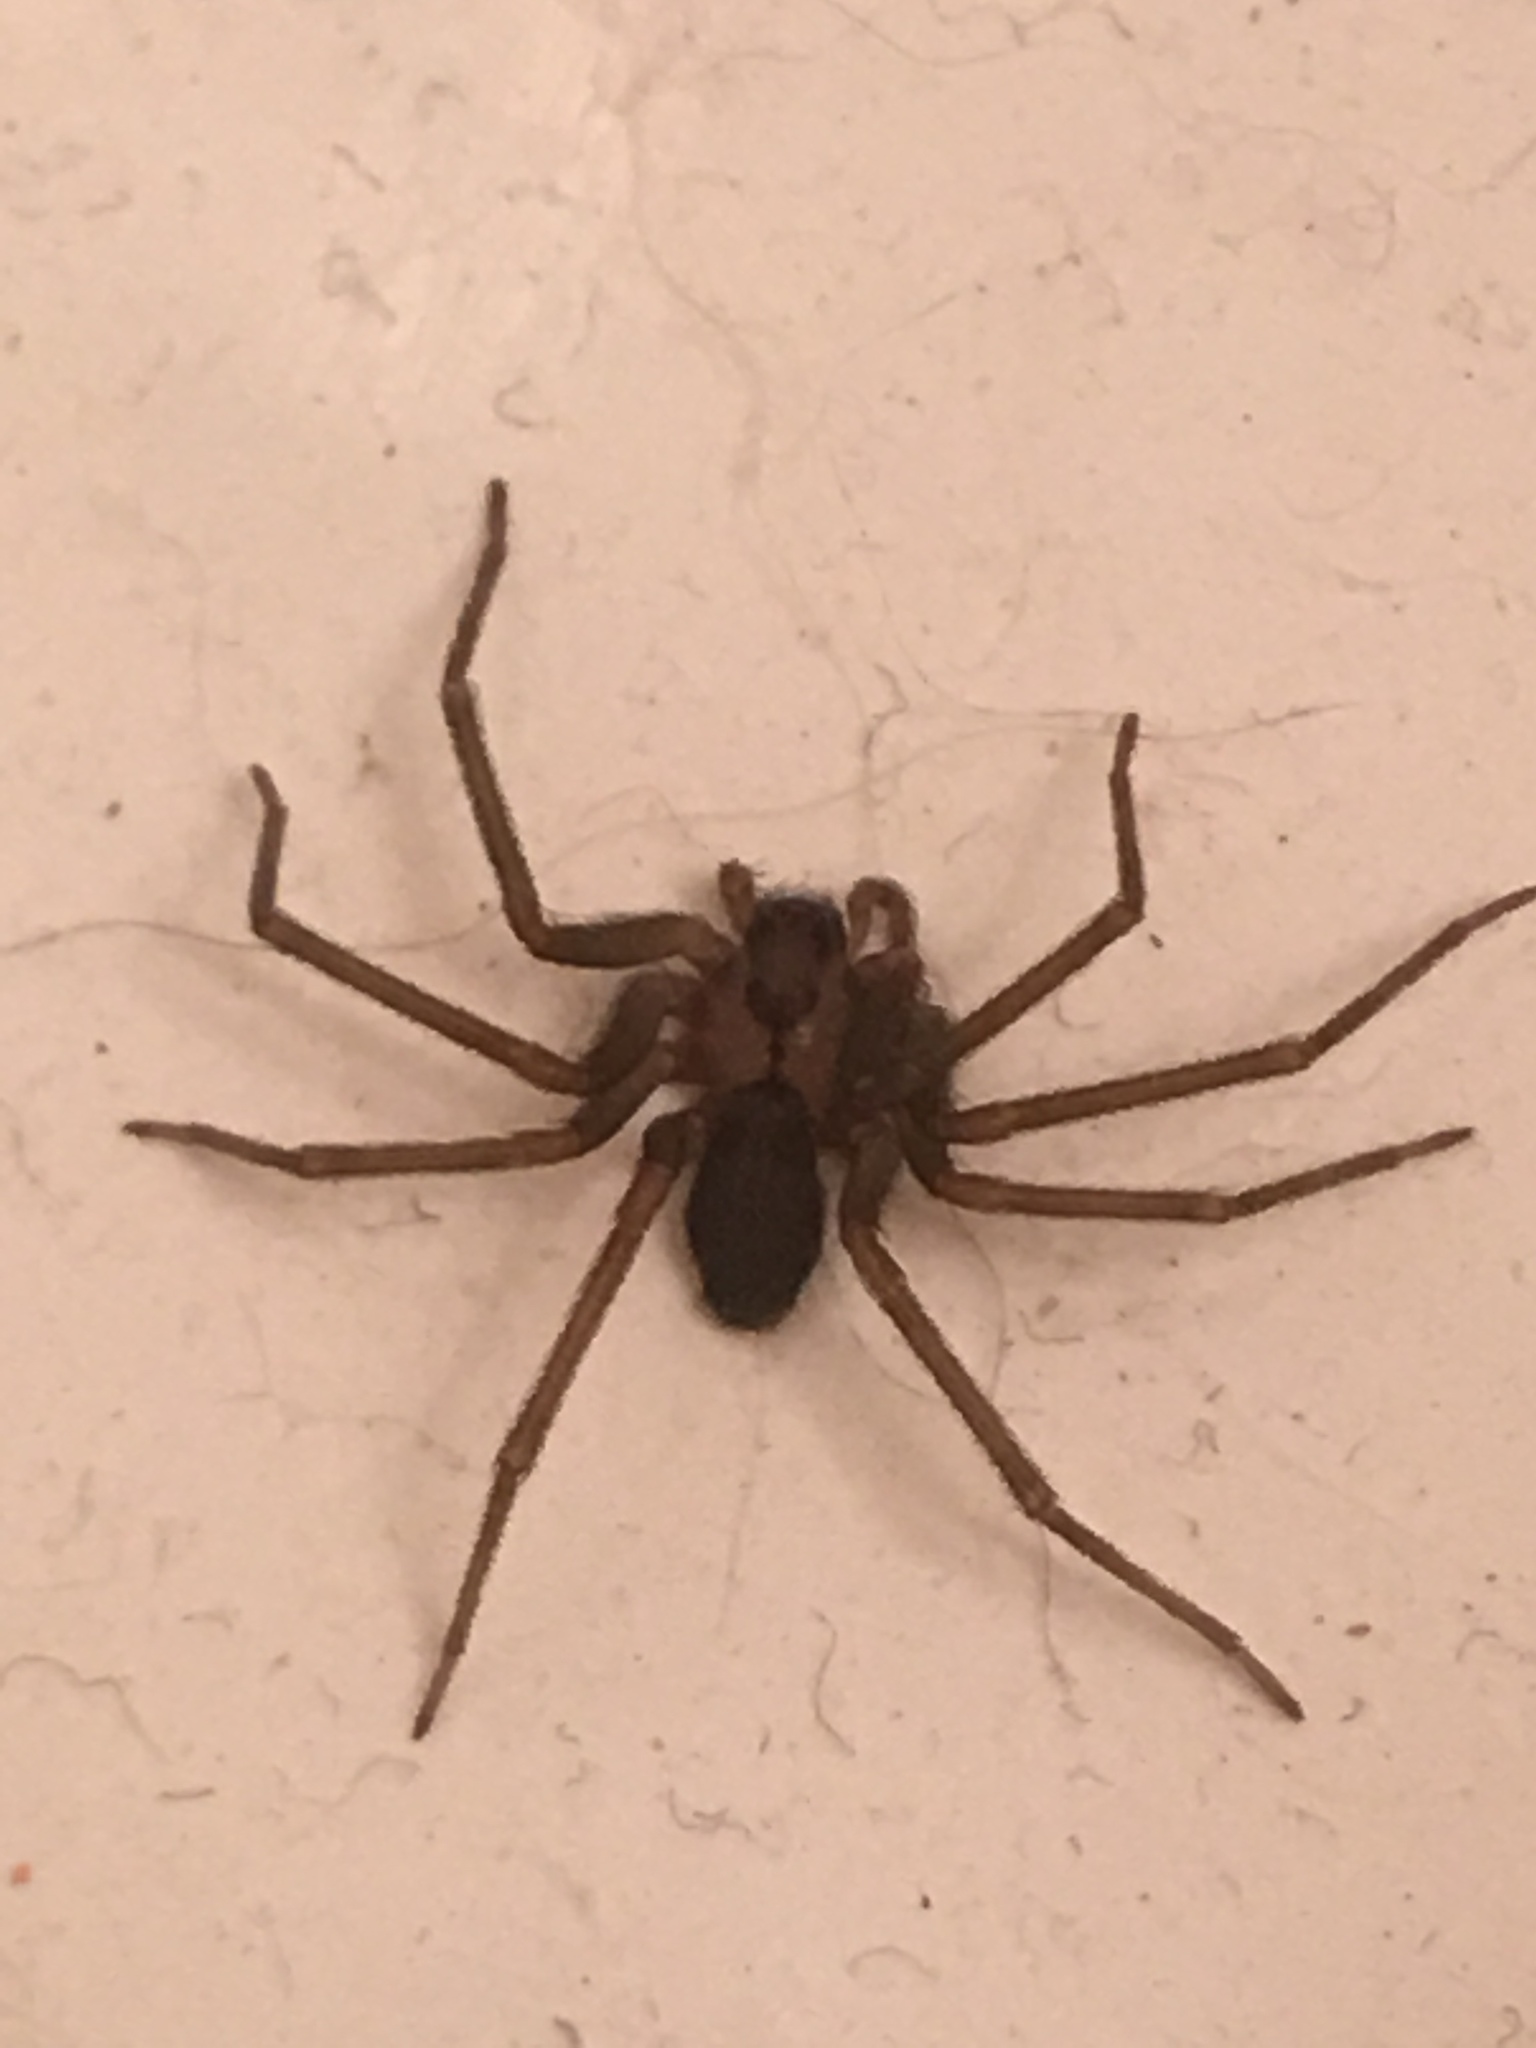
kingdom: Animalia
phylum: Arthropoda
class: Arachnida
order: Araneae
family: Sicariidae
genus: Loxosceles
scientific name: Loxosceles reclusa
